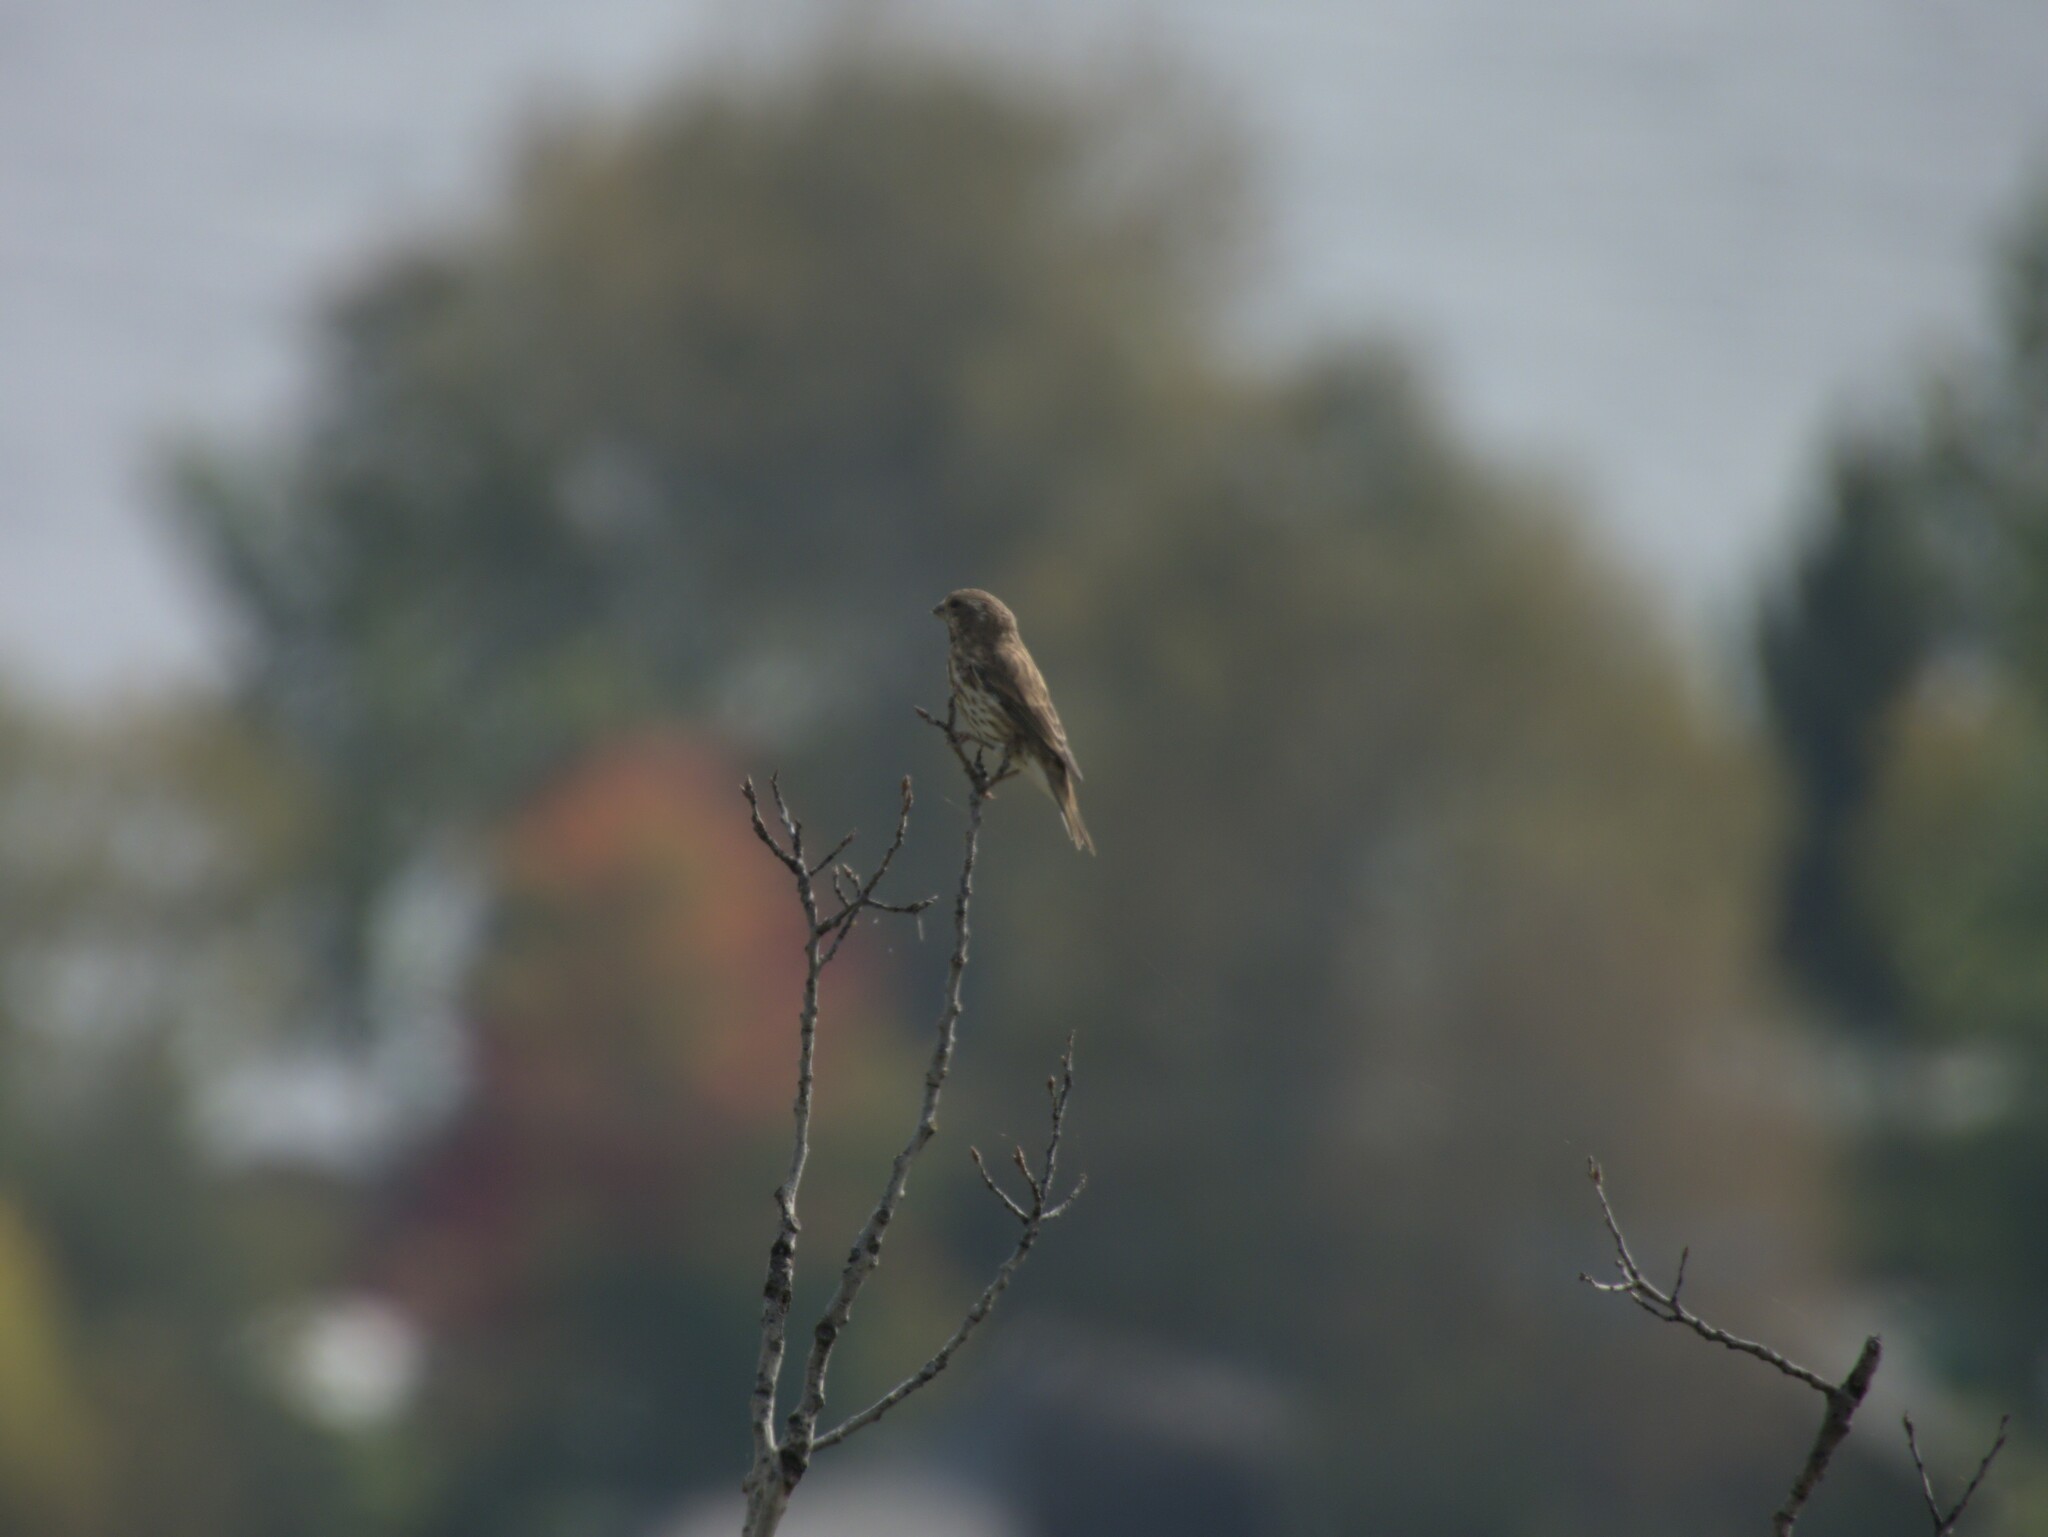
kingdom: Animalia
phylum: Chordata
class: Aves
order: Passeriformes
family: Fringillidae
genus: Haemorhous
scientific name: Haemorhous purpureus
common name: Purple finch
